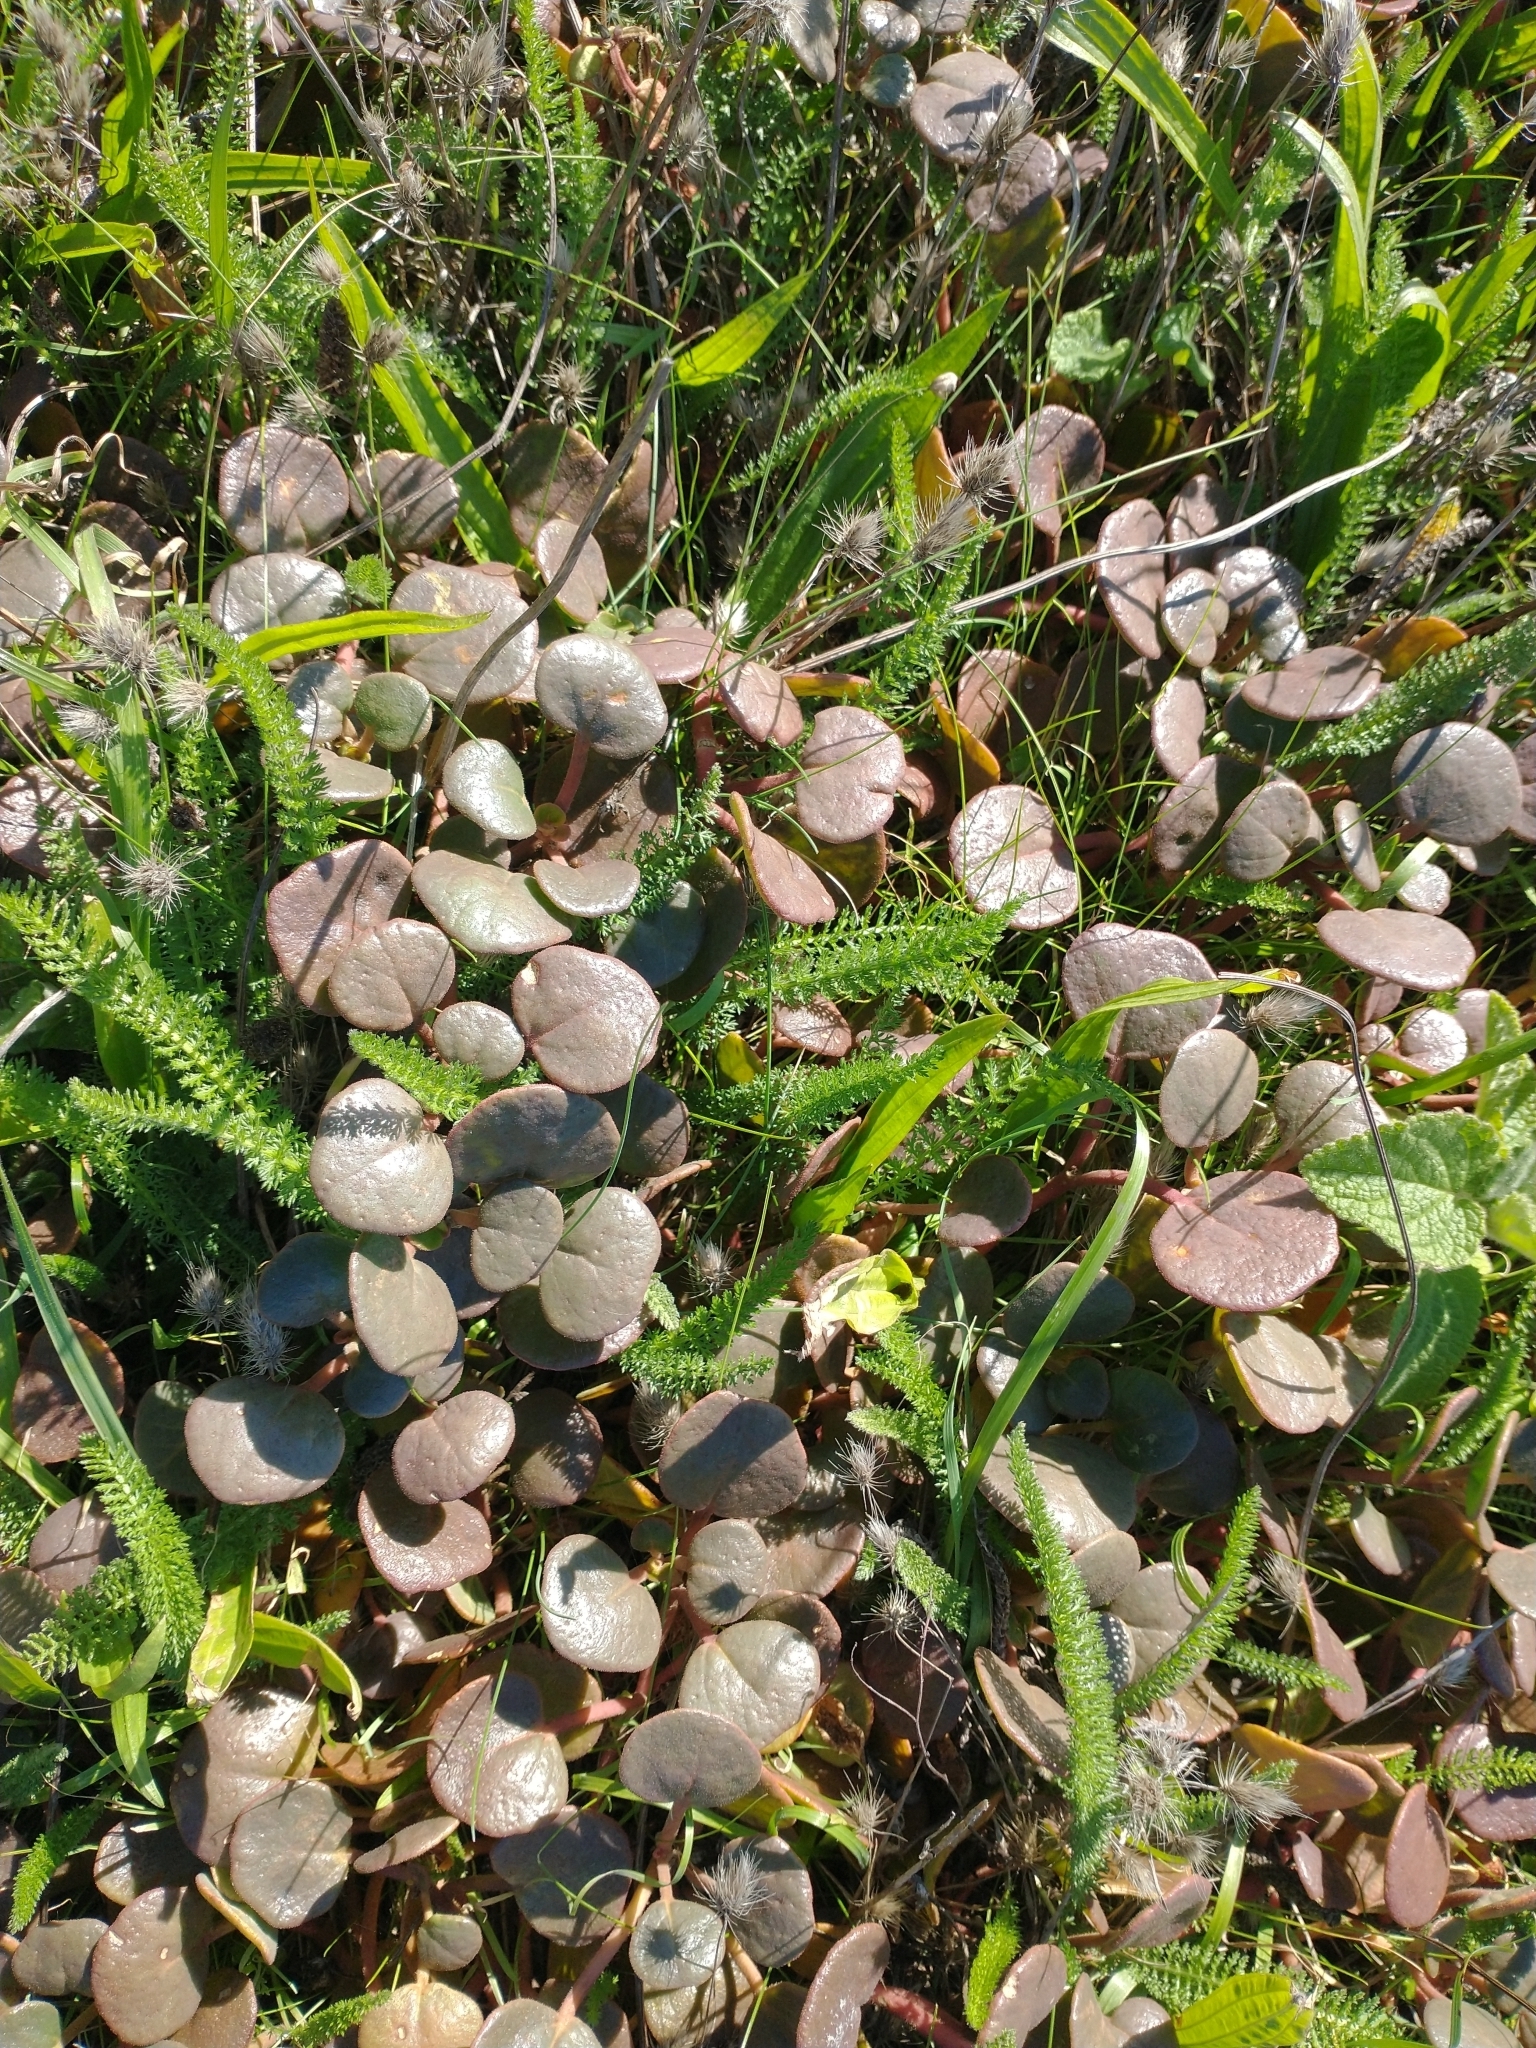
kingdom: Plantae
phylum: Tracheophyta
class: Magnoliopsida
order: Asterales
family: Asteraceae
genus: Achillea
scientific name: Achillea millefolium
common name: Yarrow
